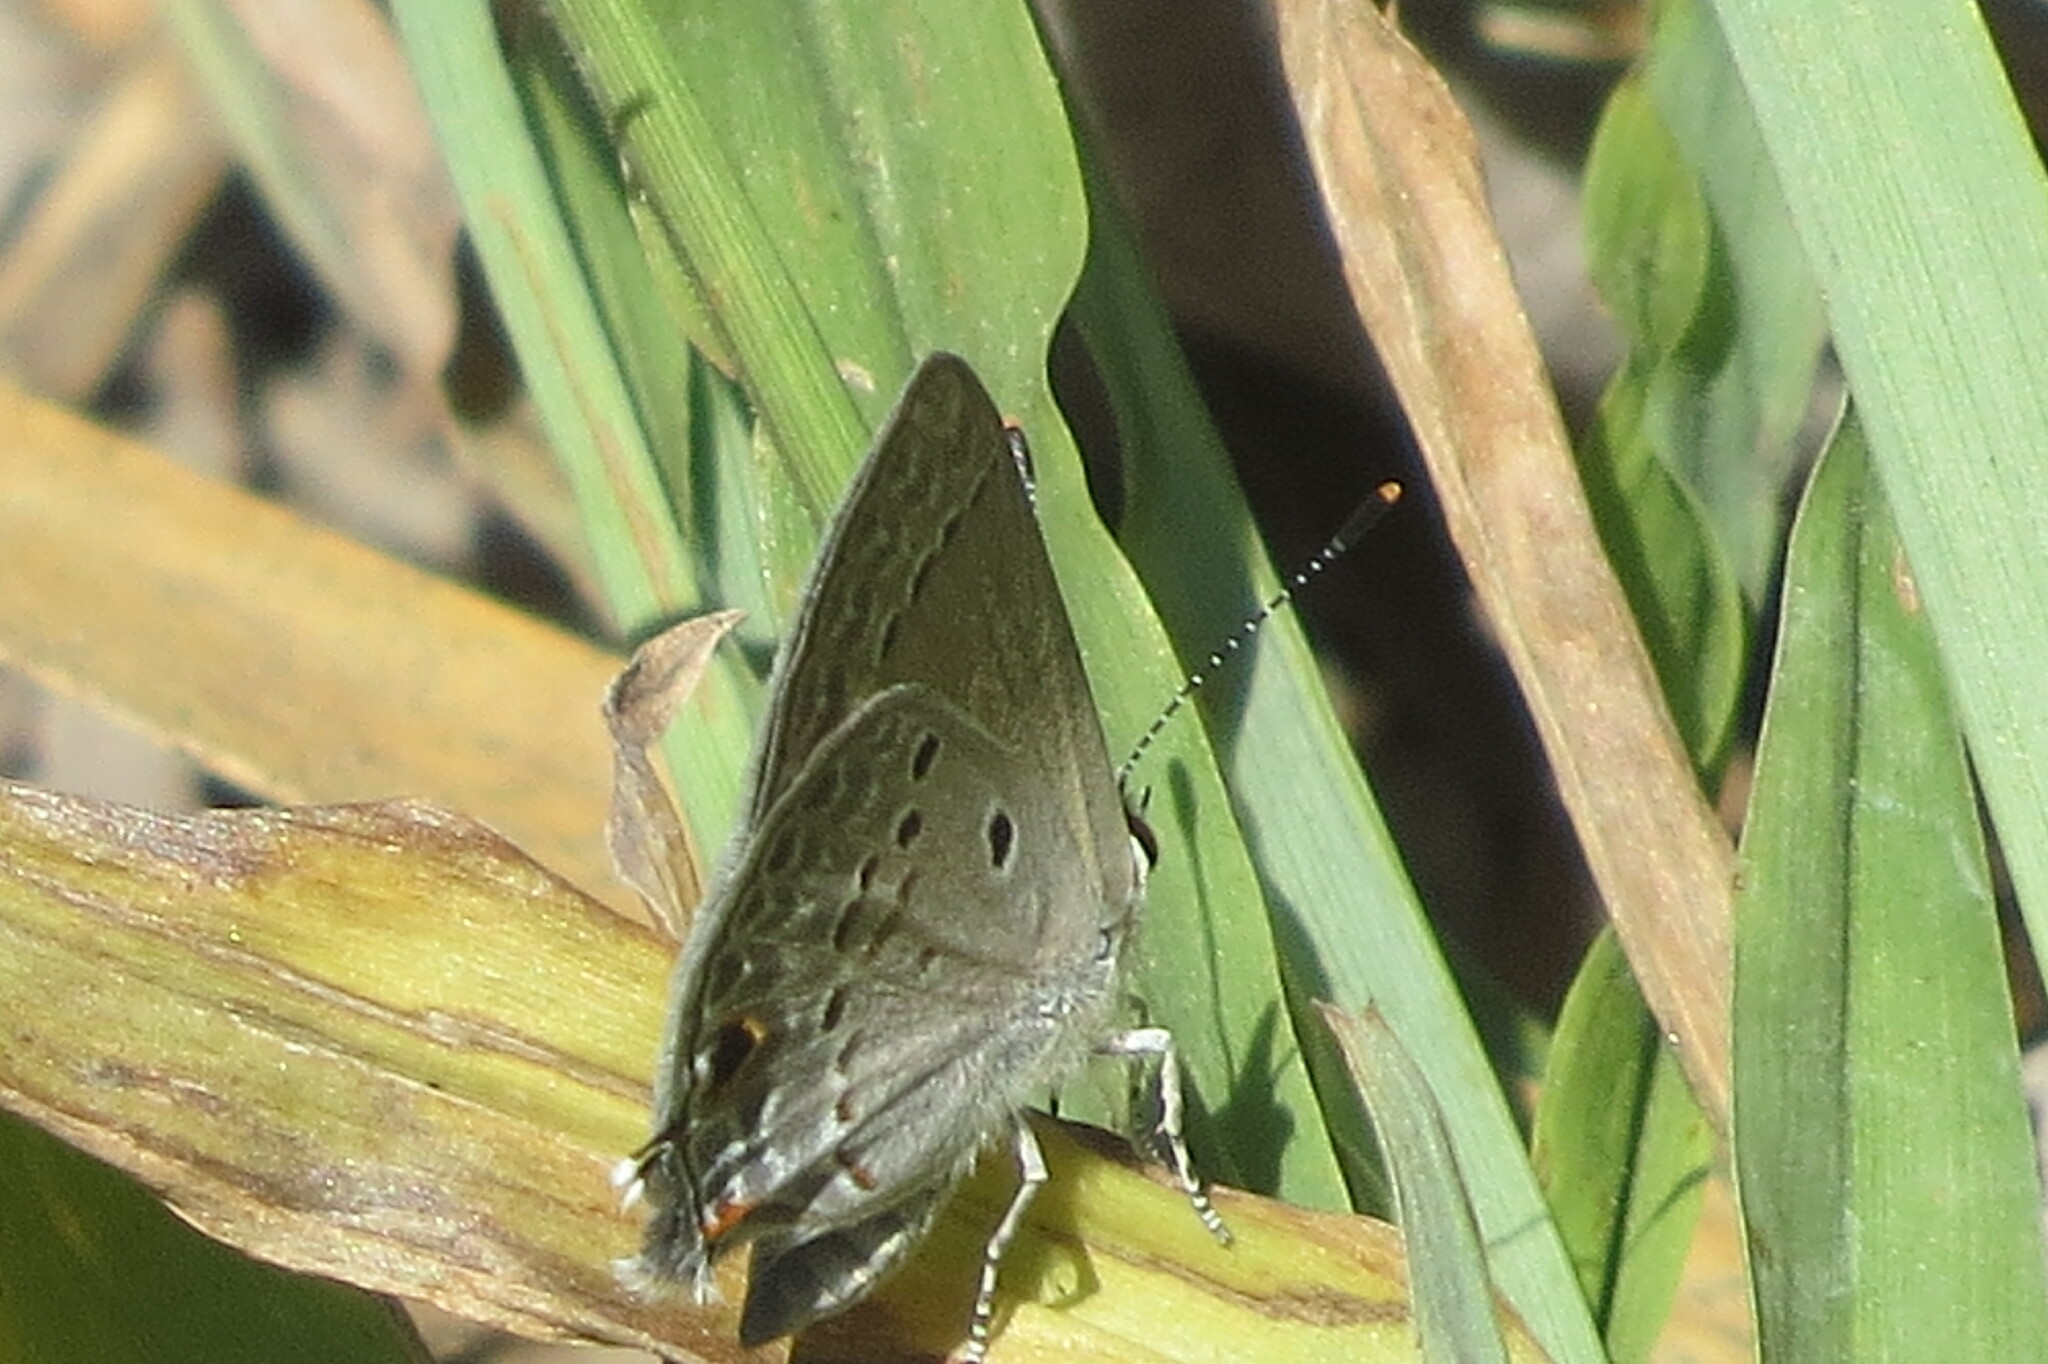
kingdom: Animalia
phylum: Arthropoda
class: Insecta
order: Lepidoptera
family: Lycaenidae
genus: Callicista
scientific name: Callicista columella
